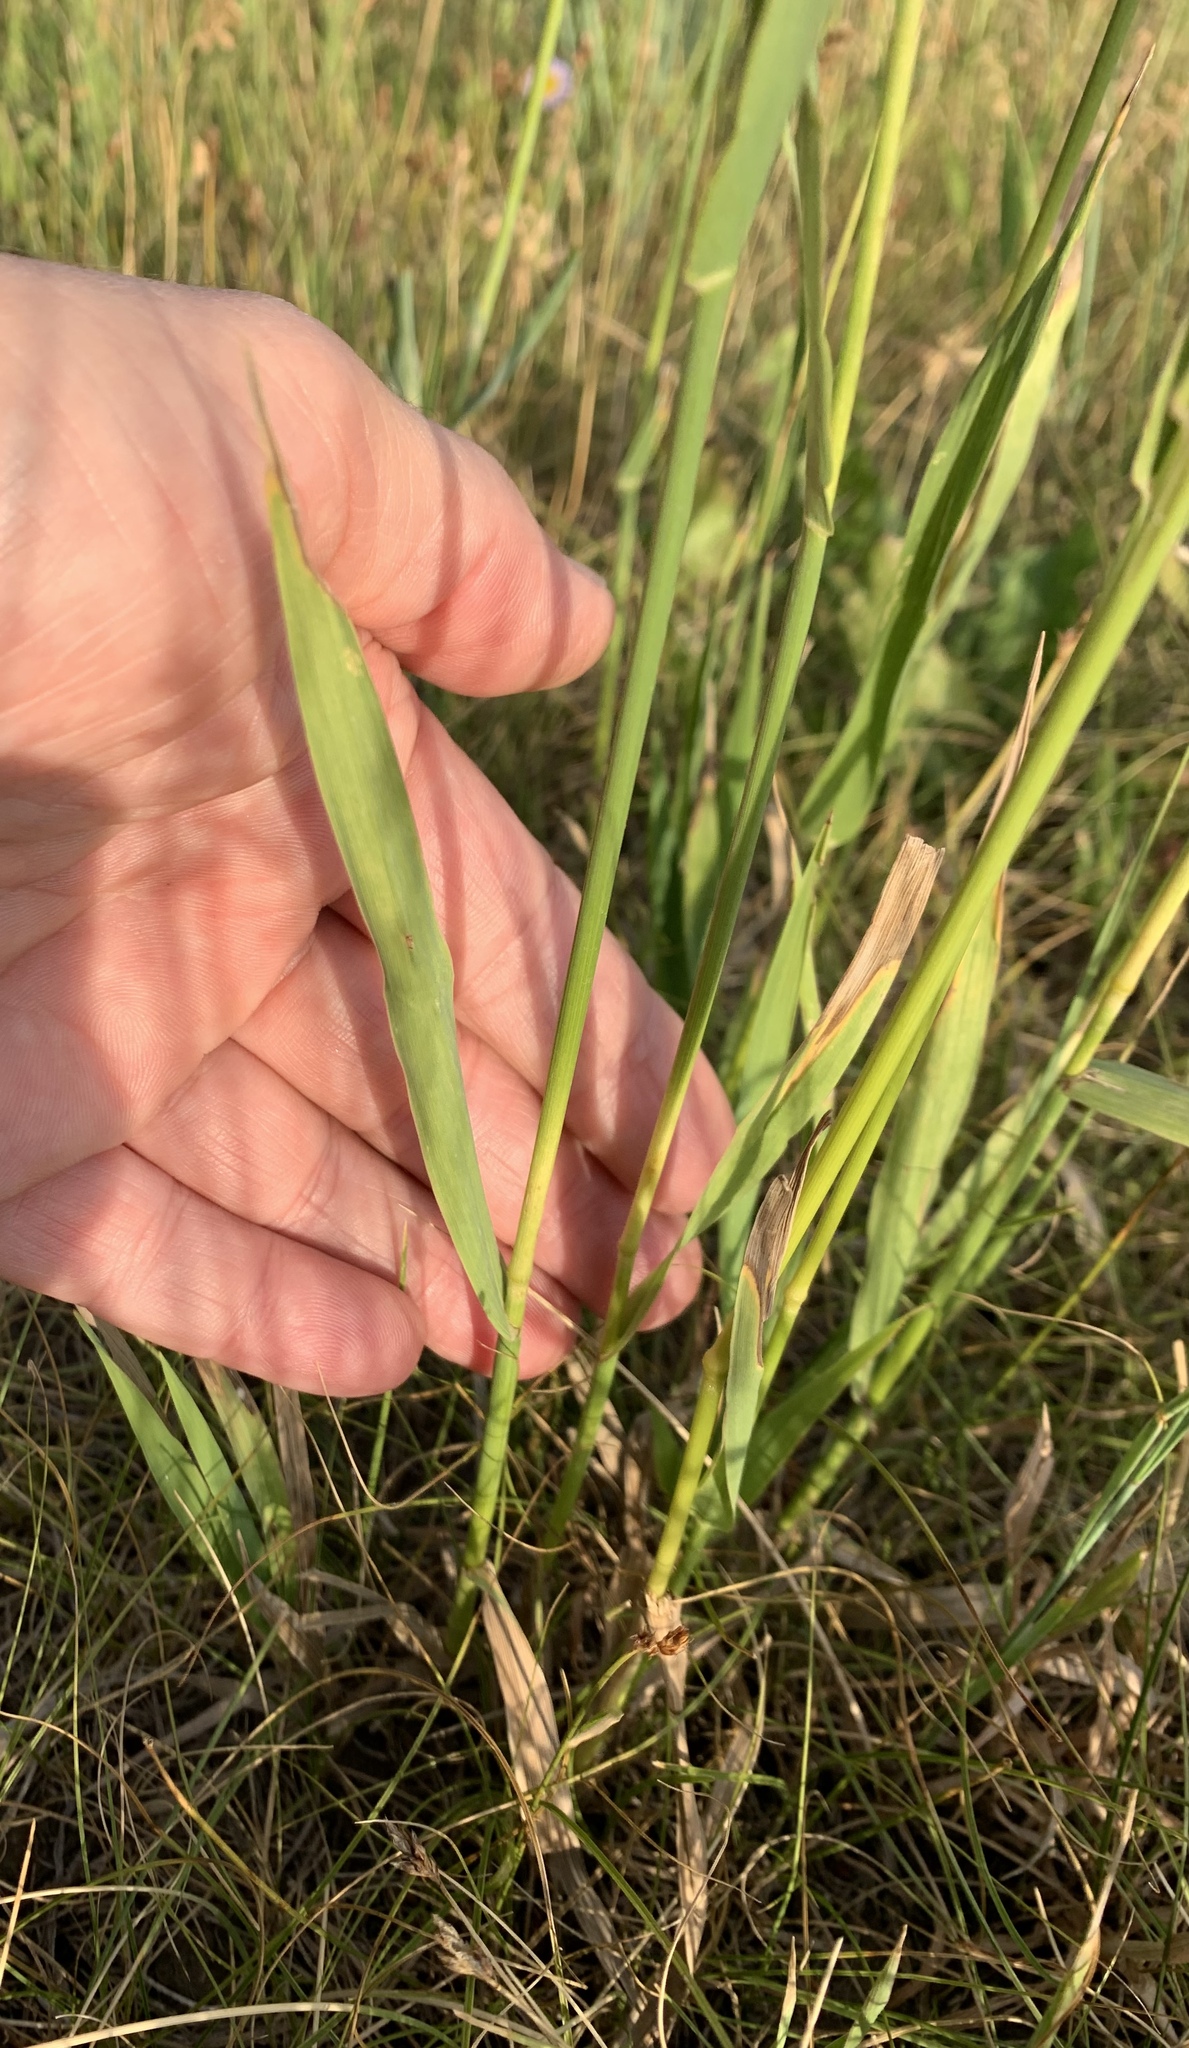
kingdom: Plantae
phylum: Tracheophyta
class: Liliopsida
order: Poales
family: Poaceae
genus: Bromus
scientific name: Bromus inermis
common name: Smooth brome
